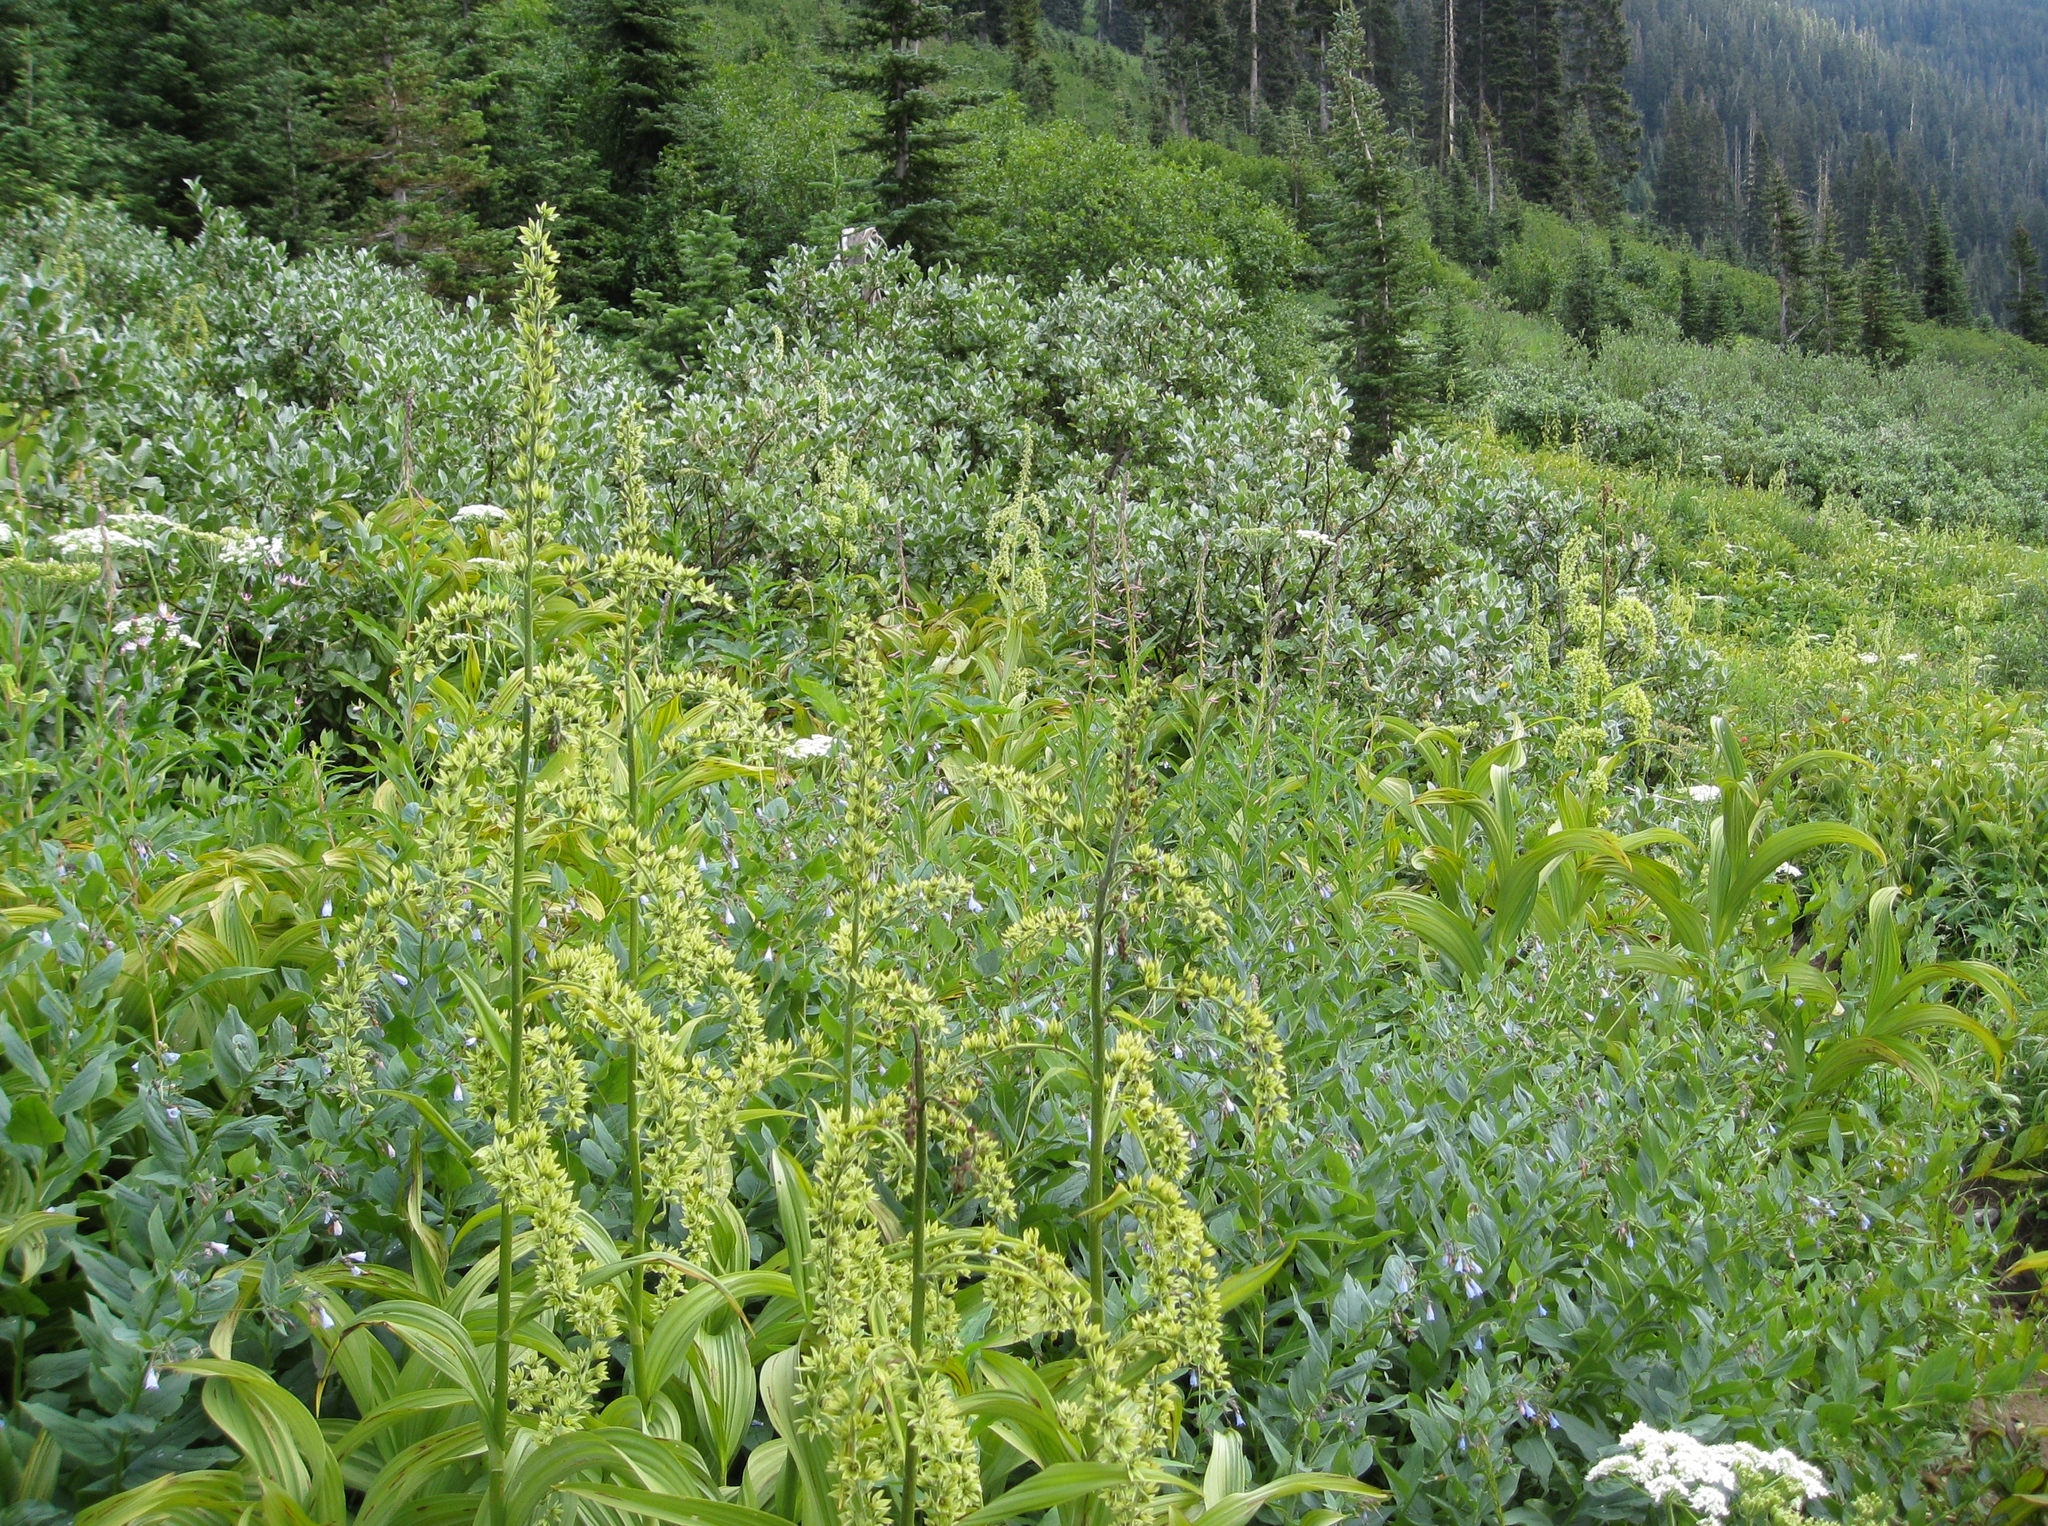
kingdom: Plantae
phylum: Tracheophyta
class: Liliopsida
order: Liliales
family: Melanthiaceae
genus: Veratrum
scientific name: Veratrum viride
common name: American false hellebore
